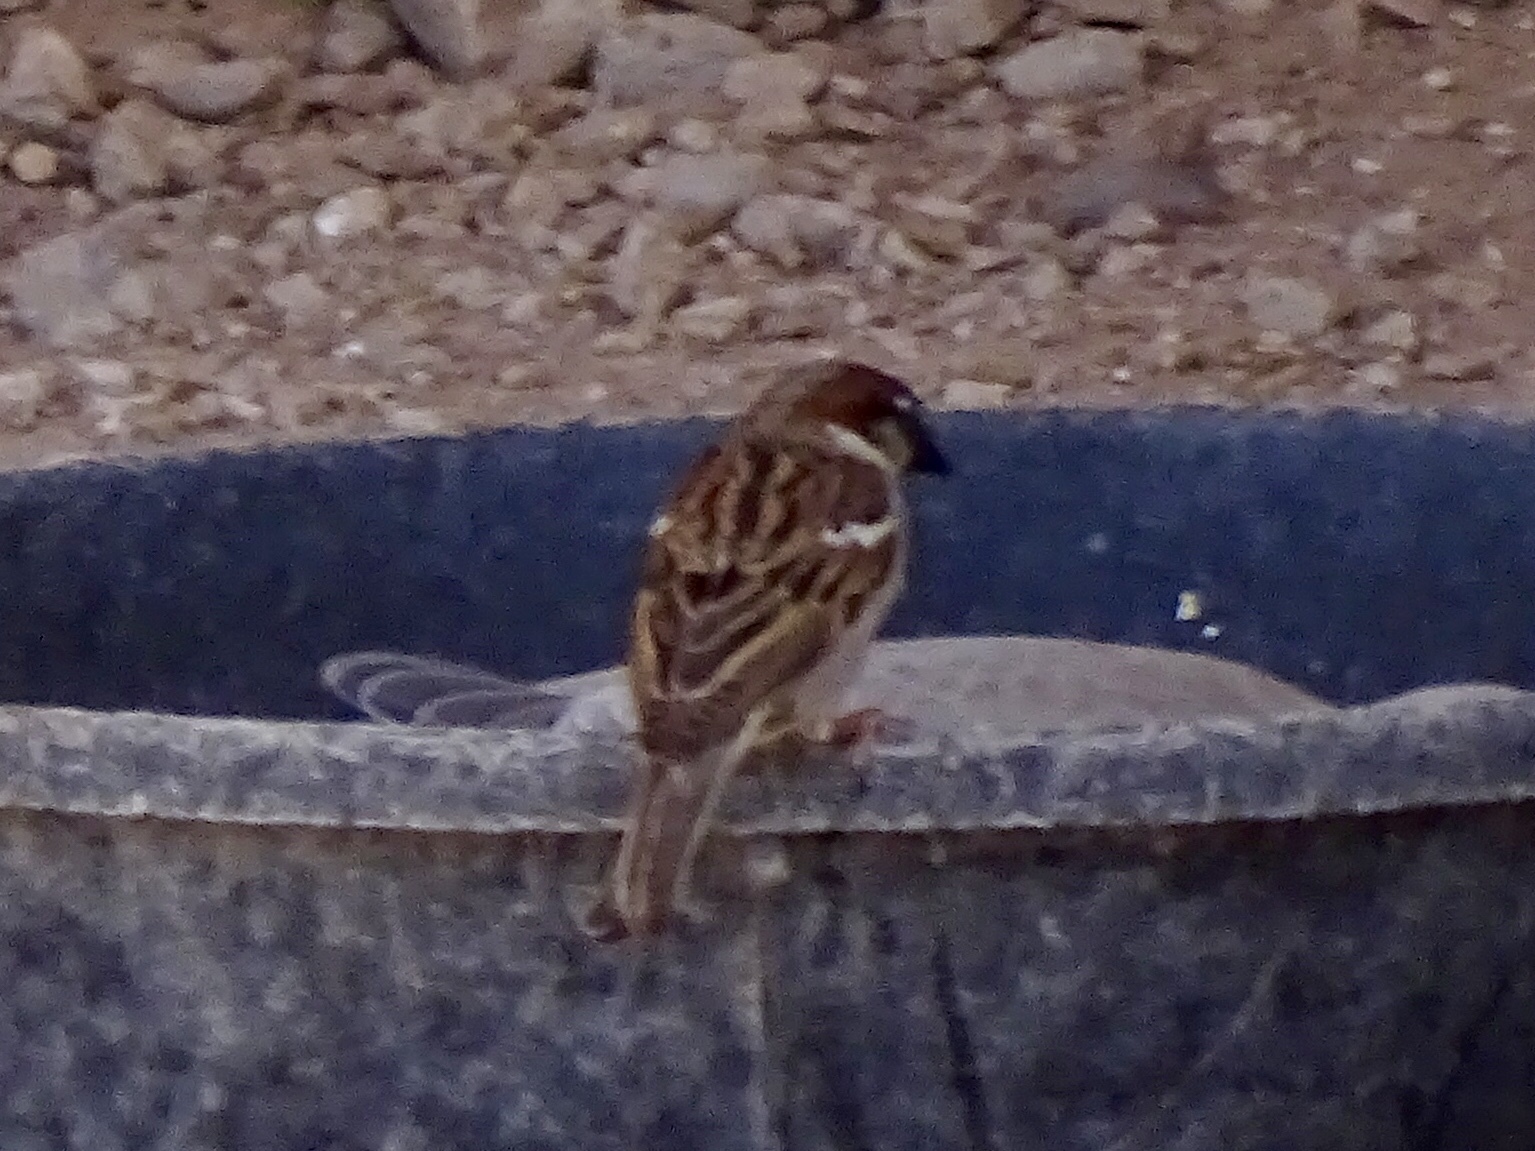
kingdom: Animalia
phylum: Chordata
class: Aves
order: Passeriformes
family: Passeridae
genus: Passer
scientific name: Passer domesticus
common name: House sparrow
